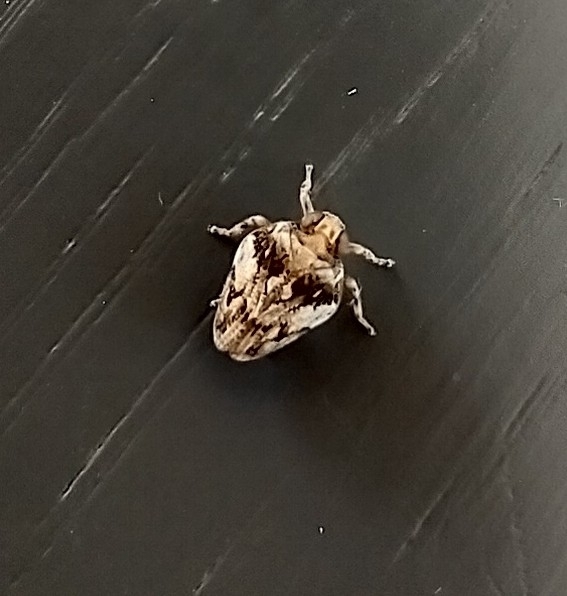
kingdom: Animalia
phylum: Arthropoda
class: Insecta
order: Hemiptera
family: Issidae
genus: Issus
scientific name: Issus coleoptratus
